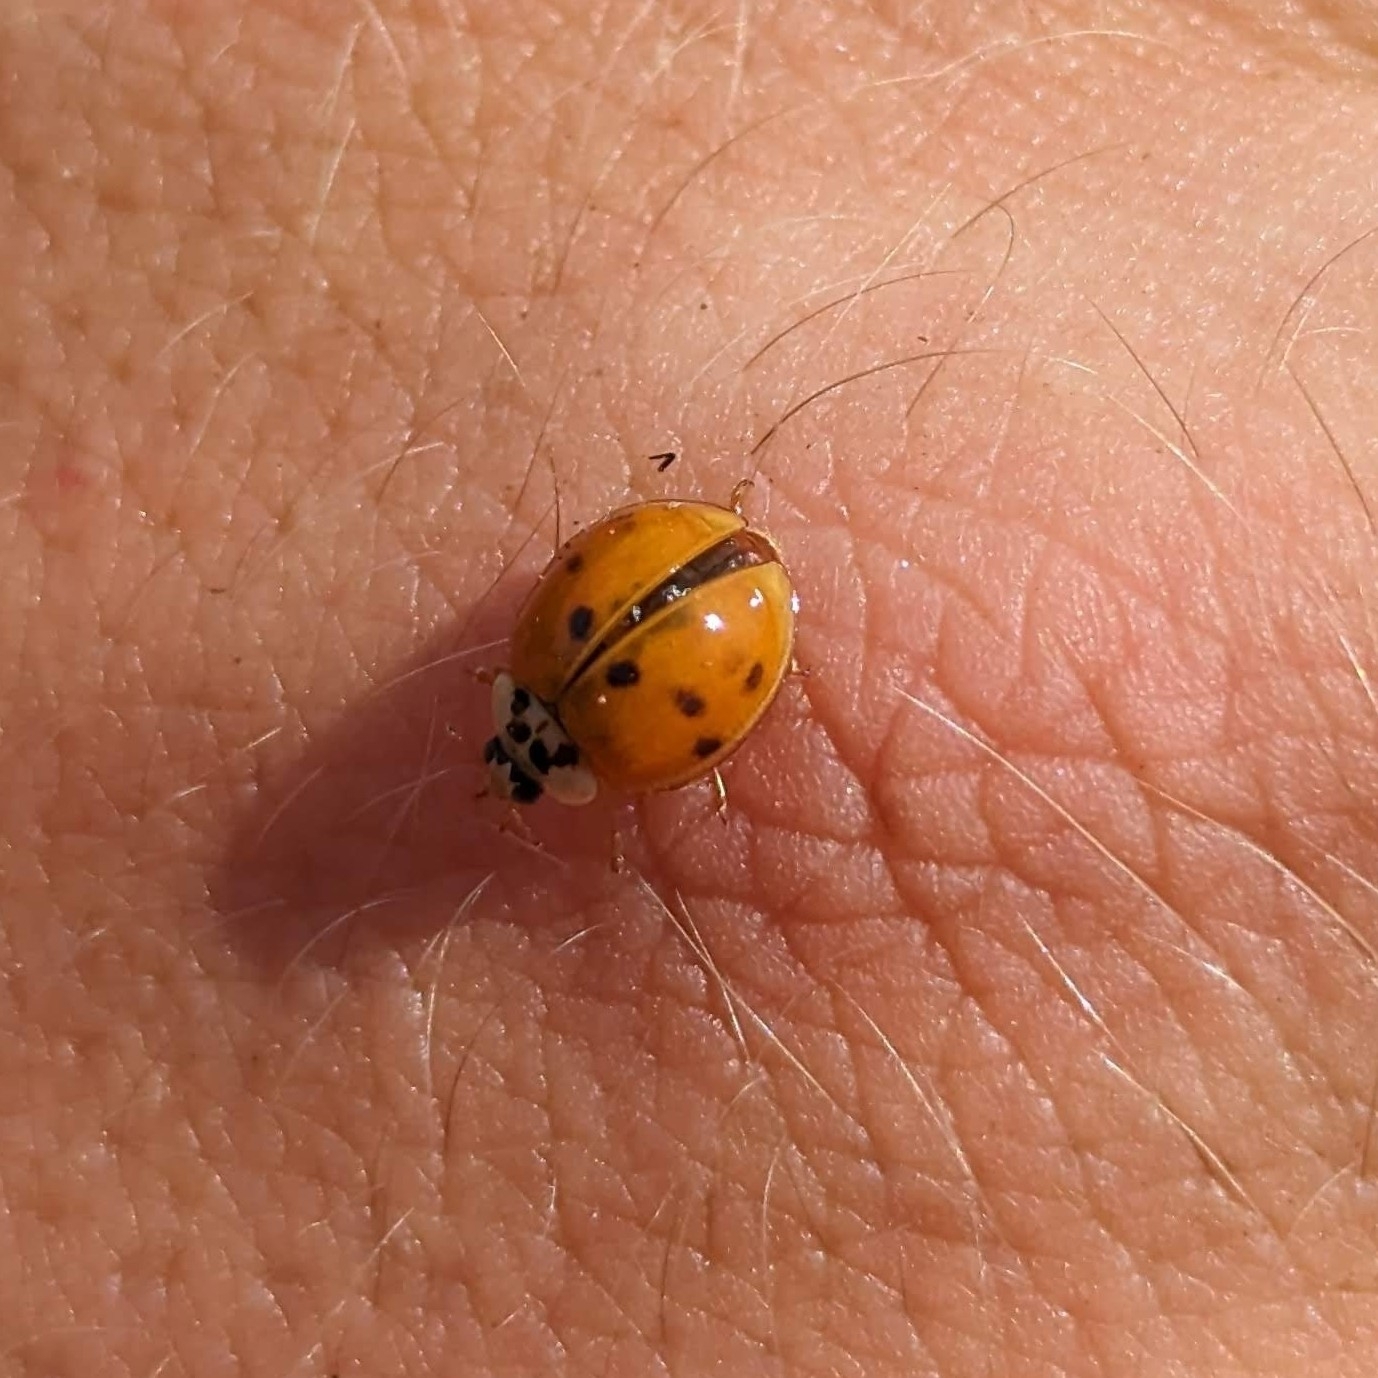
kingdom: Animalia
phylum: Arthropoda
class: Insecta
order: Coleoptera
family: Coccinellidae
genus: Harmonia
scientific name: Harmonia axyridis
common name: Harlequin ladybird
